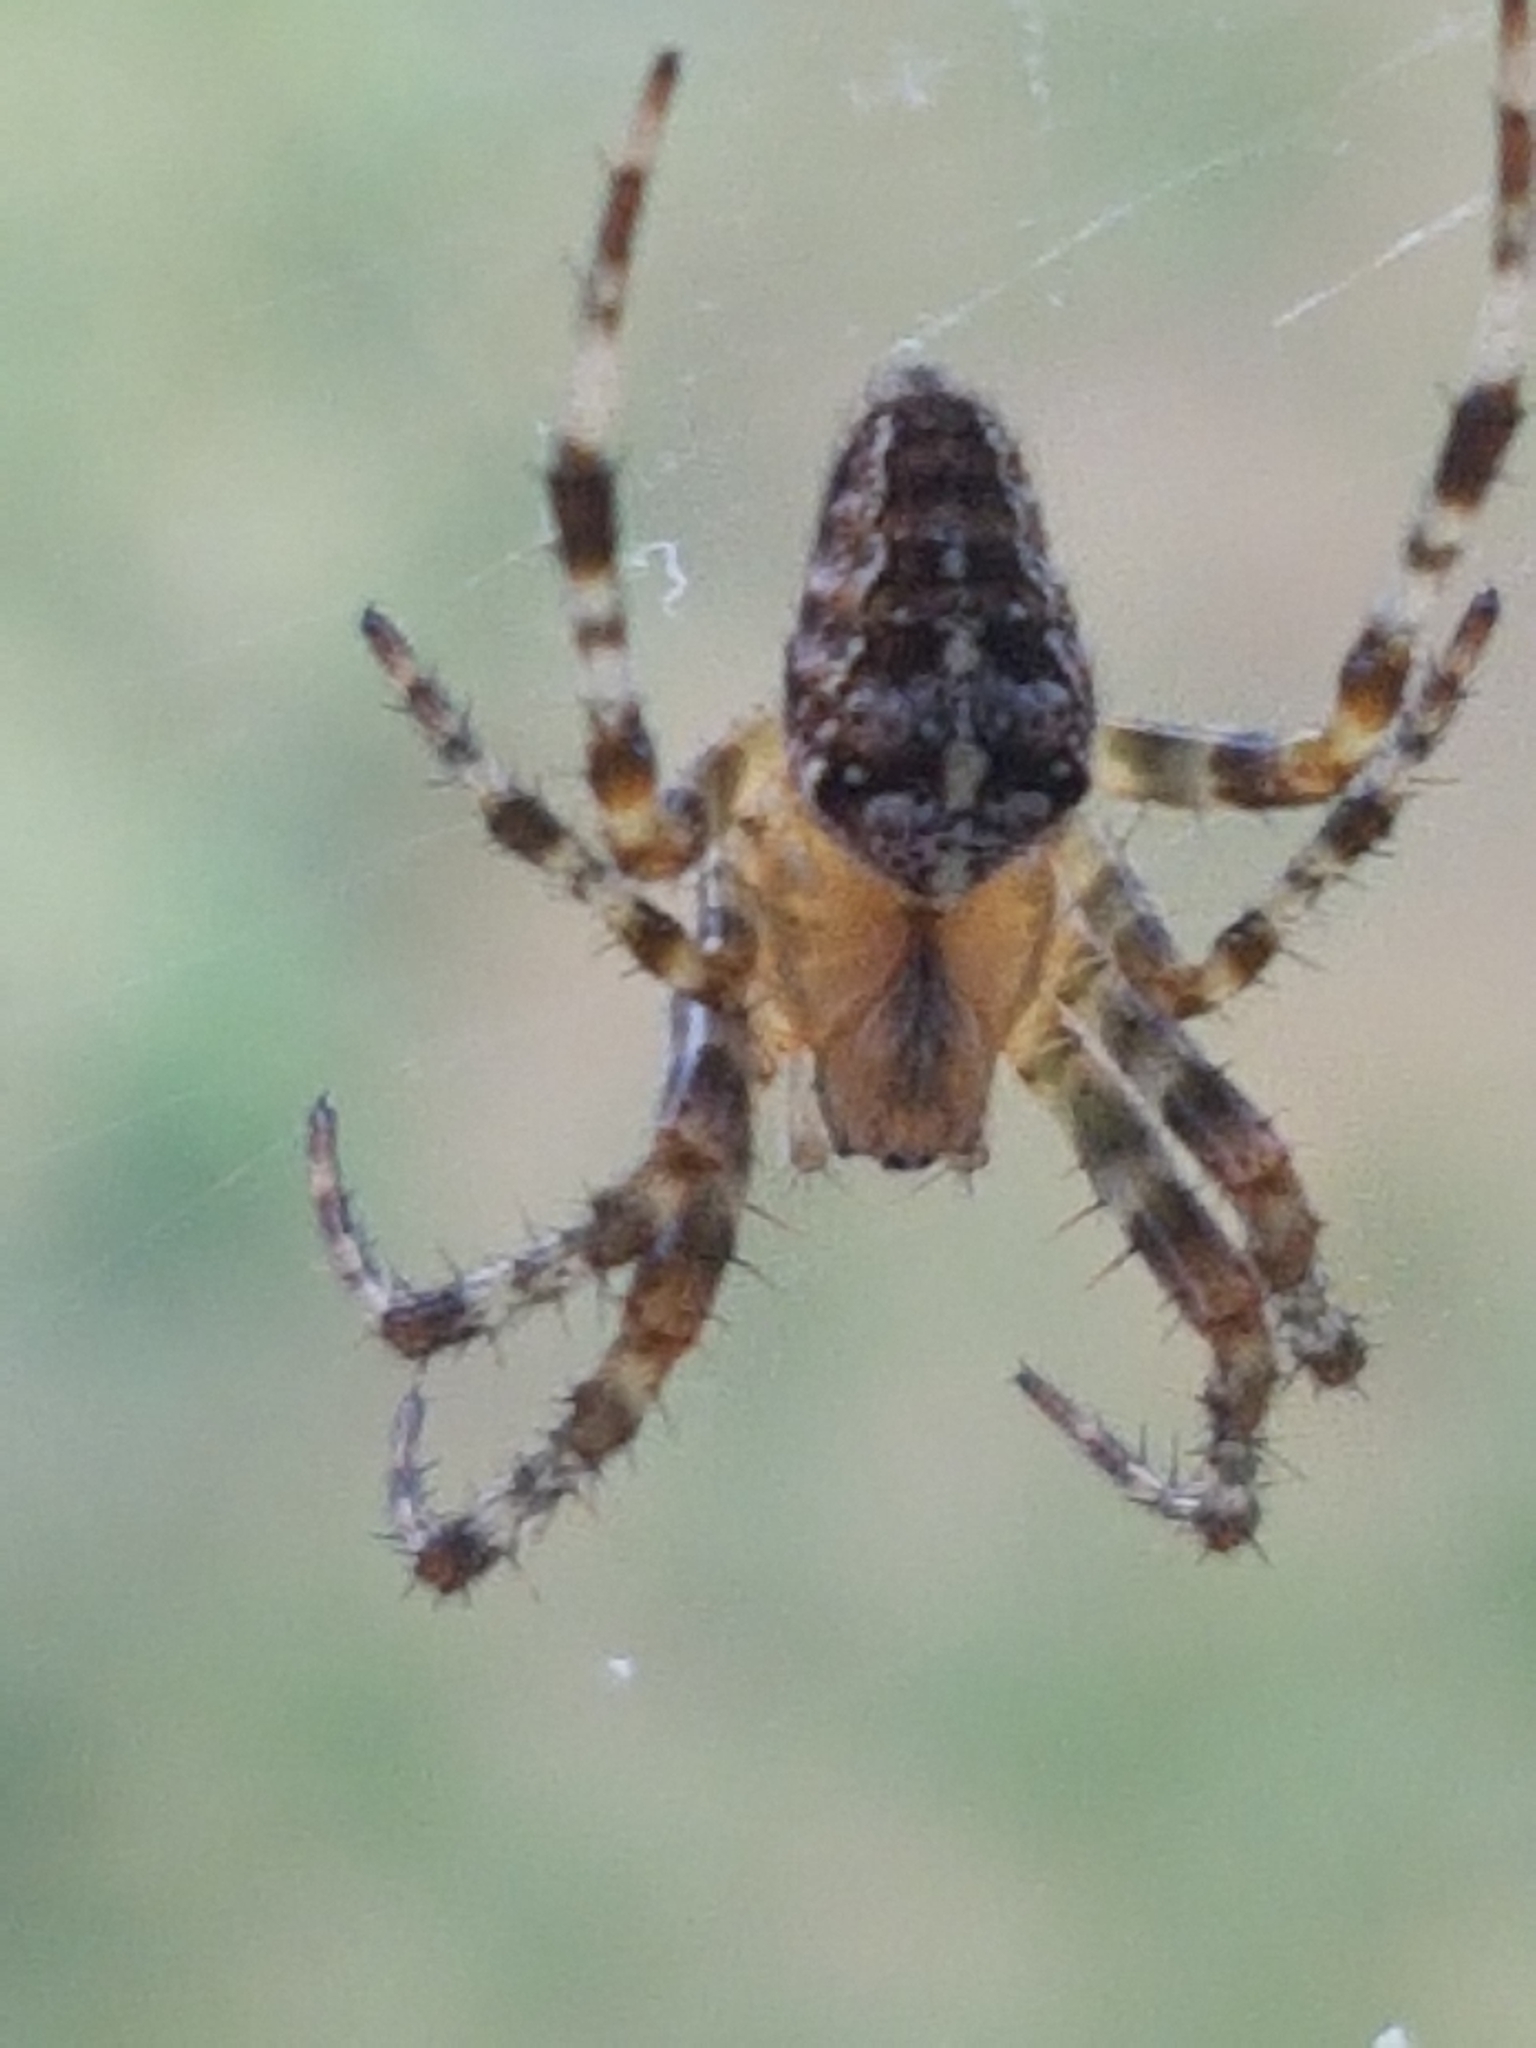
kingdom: Animalia
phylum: Arthropoda
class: Arachnida
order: Araneae
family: Araneidae
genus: Araneus
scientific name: Araneus diadematus
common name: Cross orbweaver
